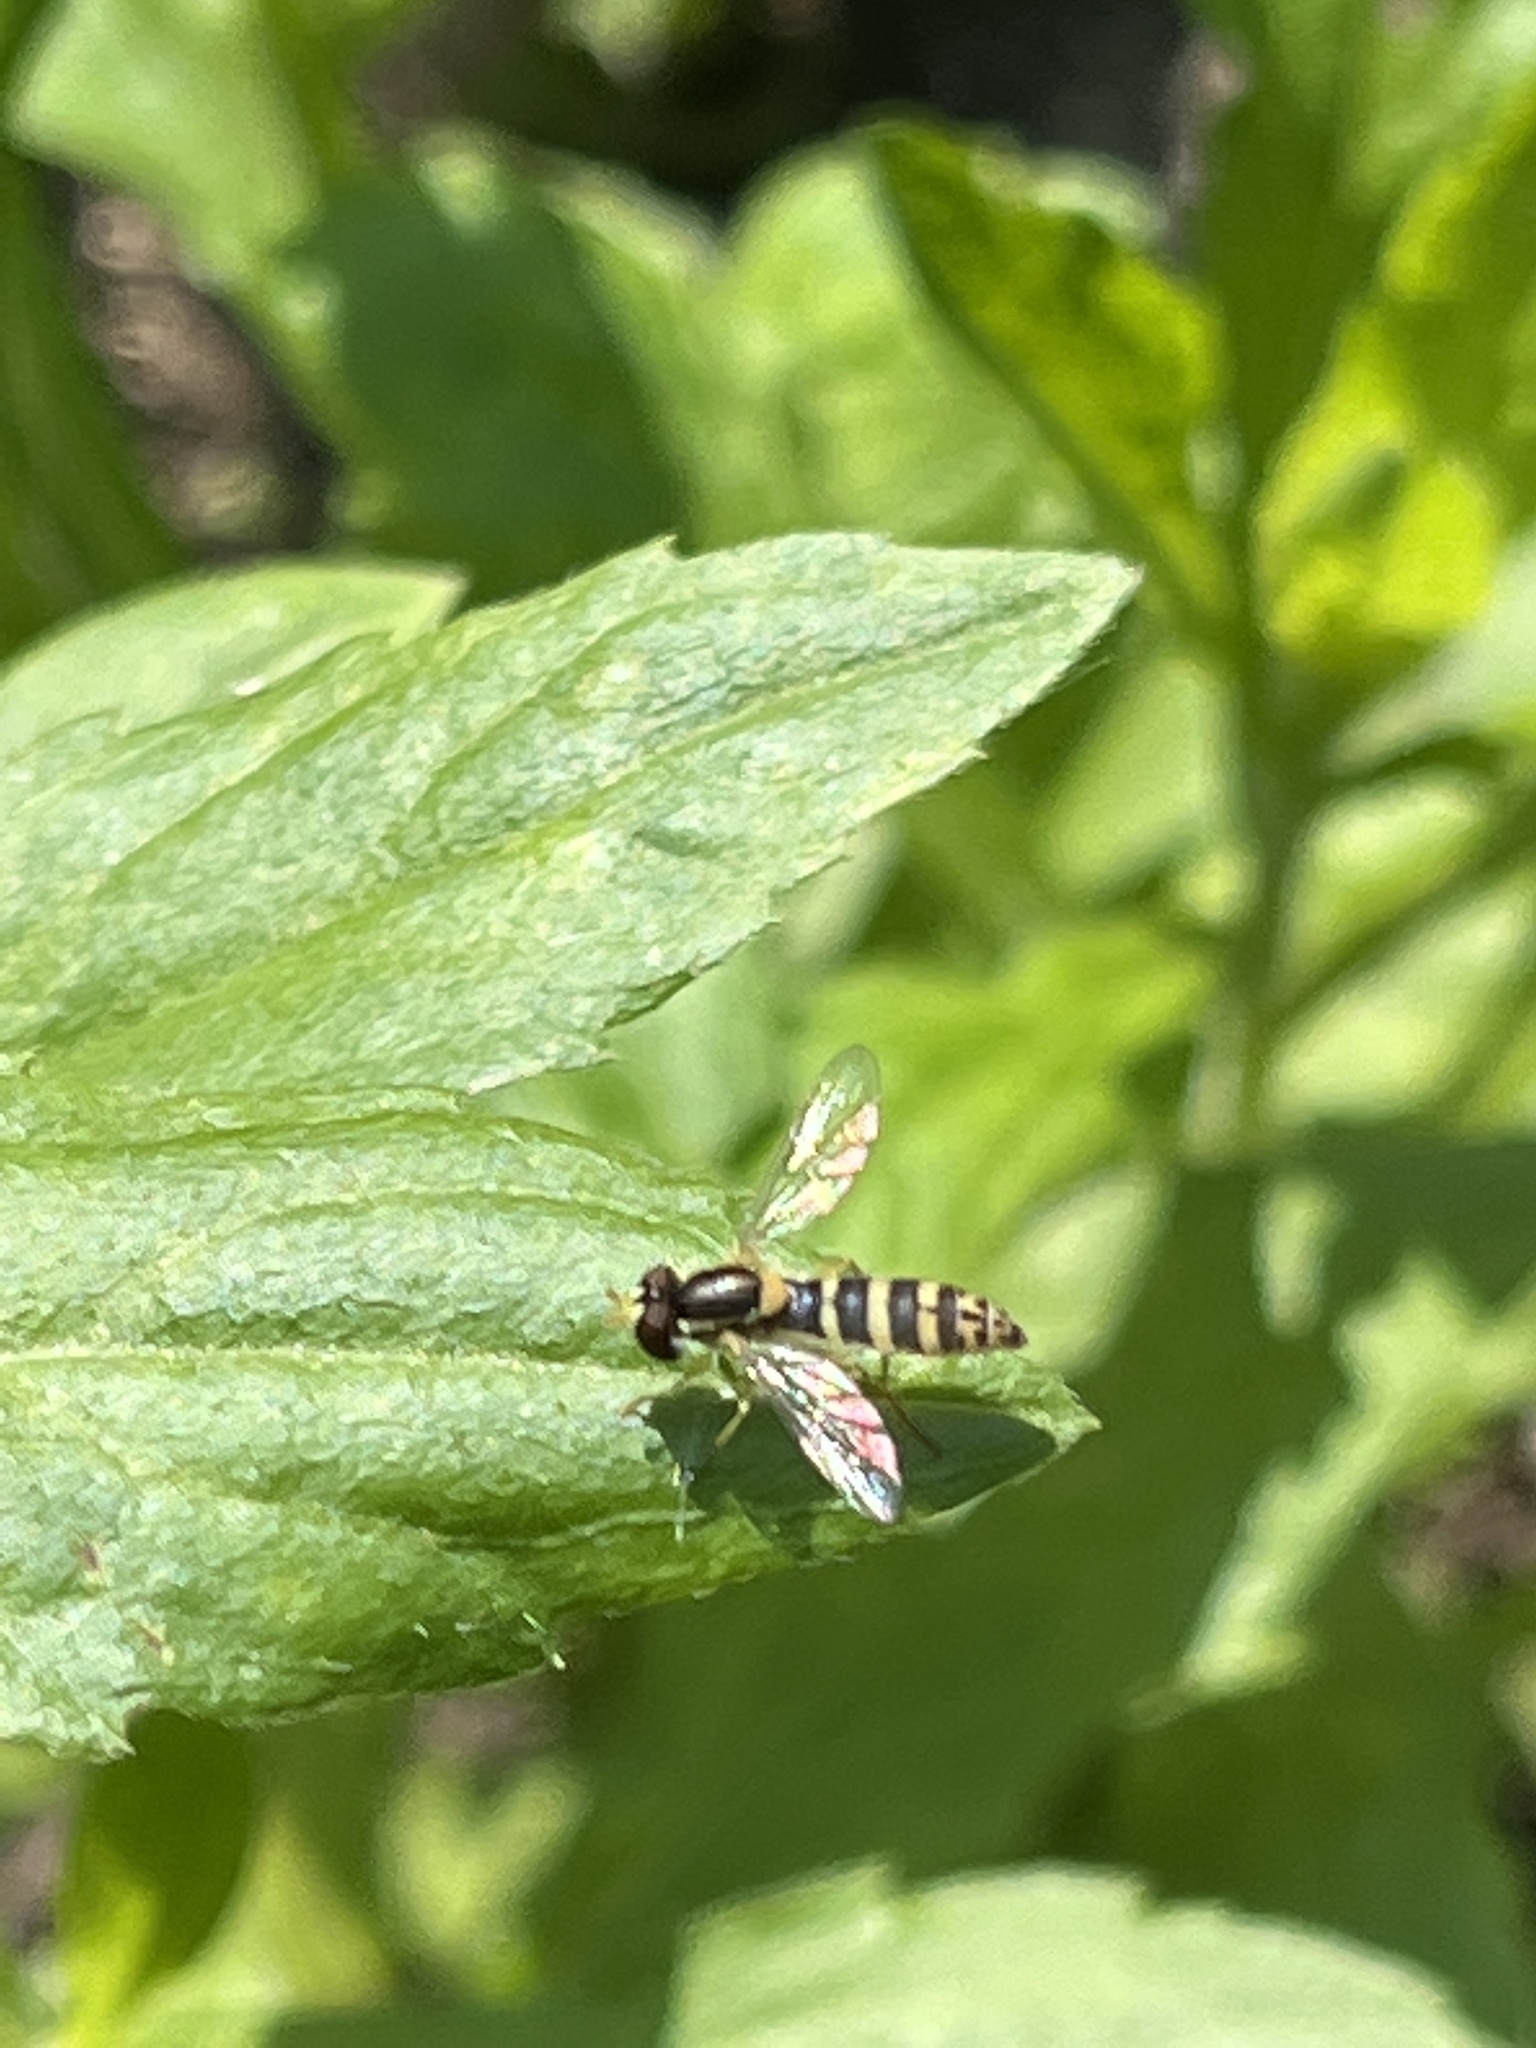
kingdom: Animalia
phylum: Arthropoda
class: Insecta
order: Diptera
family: Syrphidae
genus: Sphaerophoria
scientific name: Sphaerophoria
